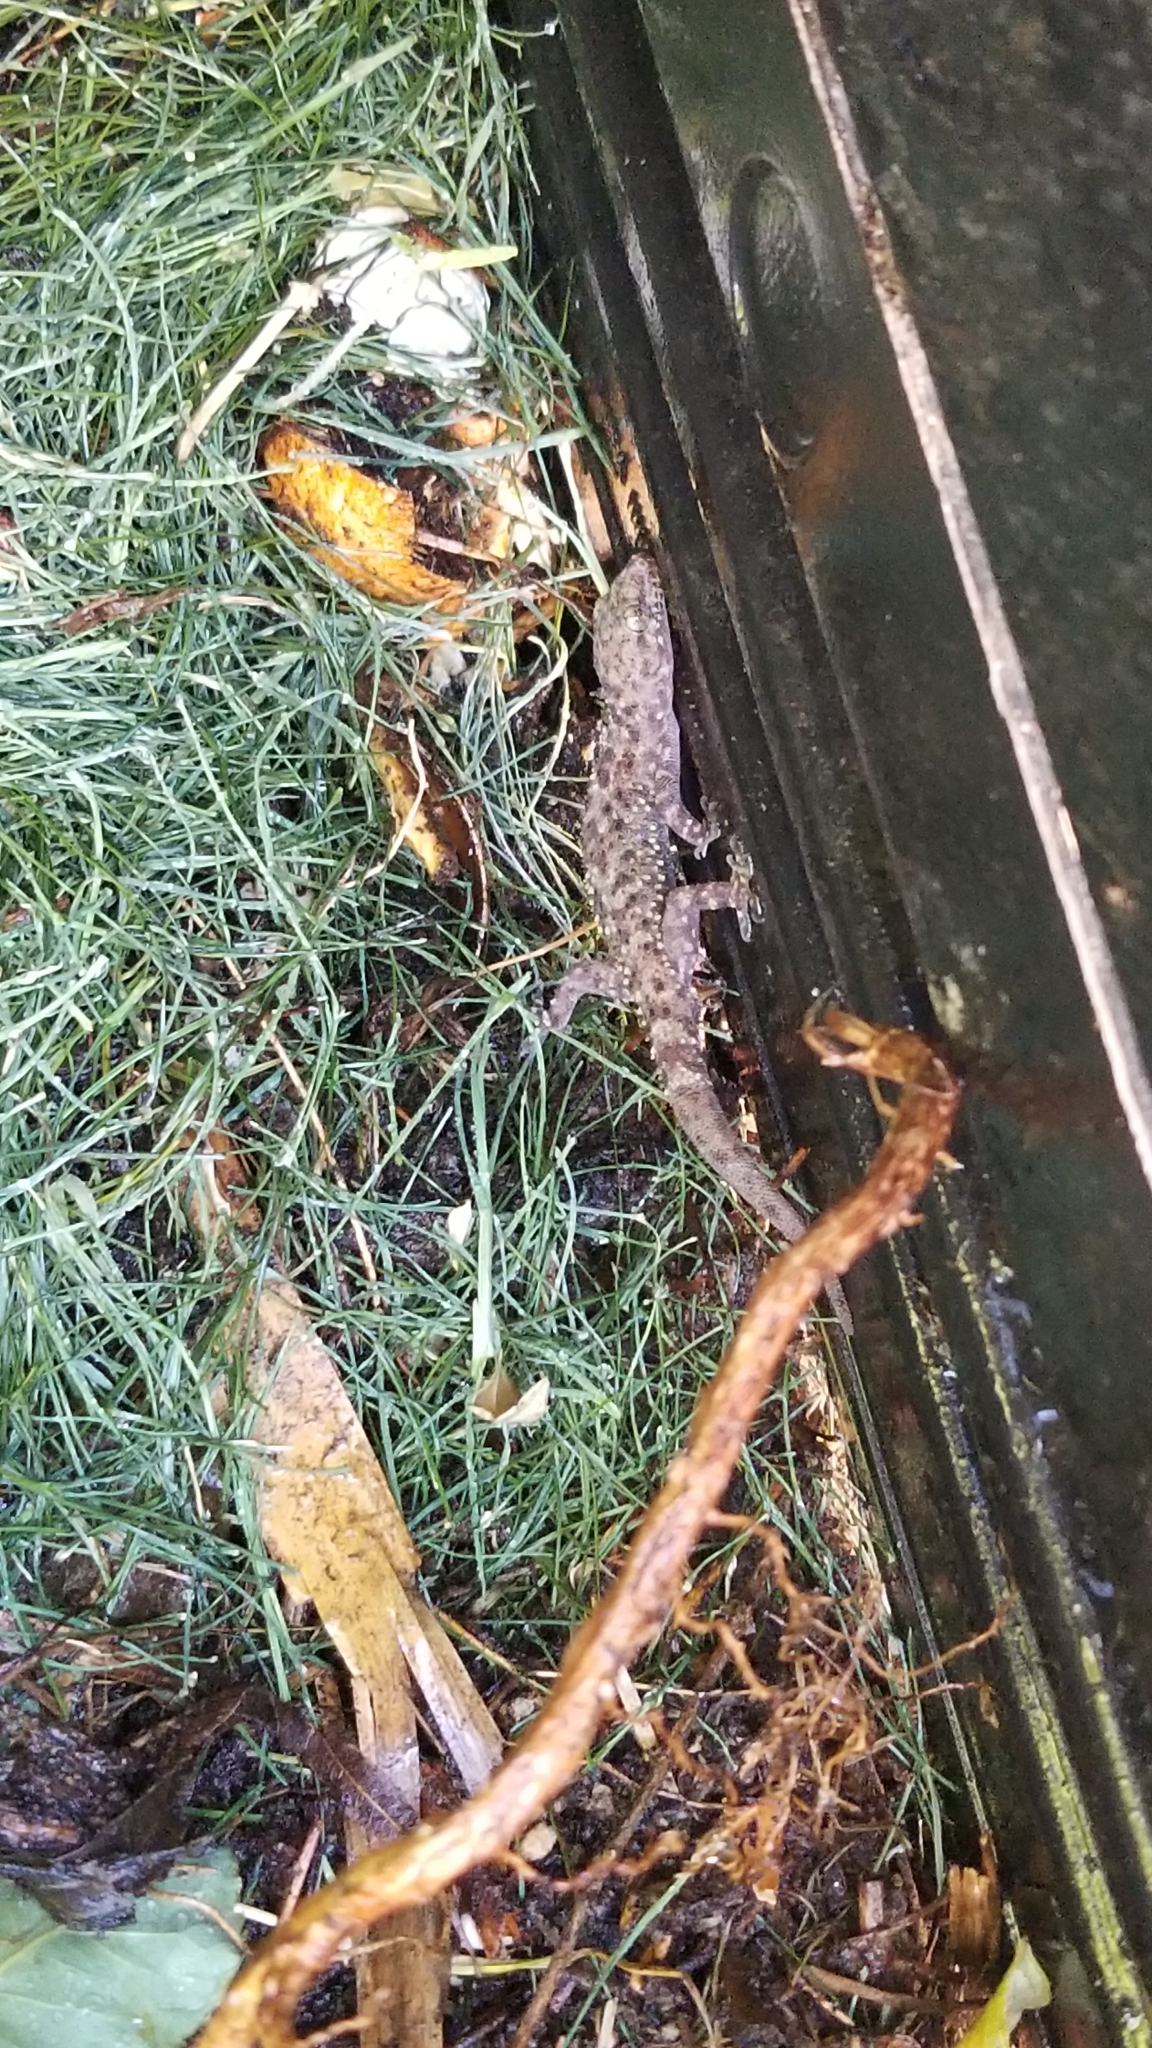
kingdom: Animalia
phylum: Chordata
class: Squamata
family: Gekkonidae
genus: Hemidactylus
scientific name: Hemidactylus turcicus
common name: Turkish gecko
